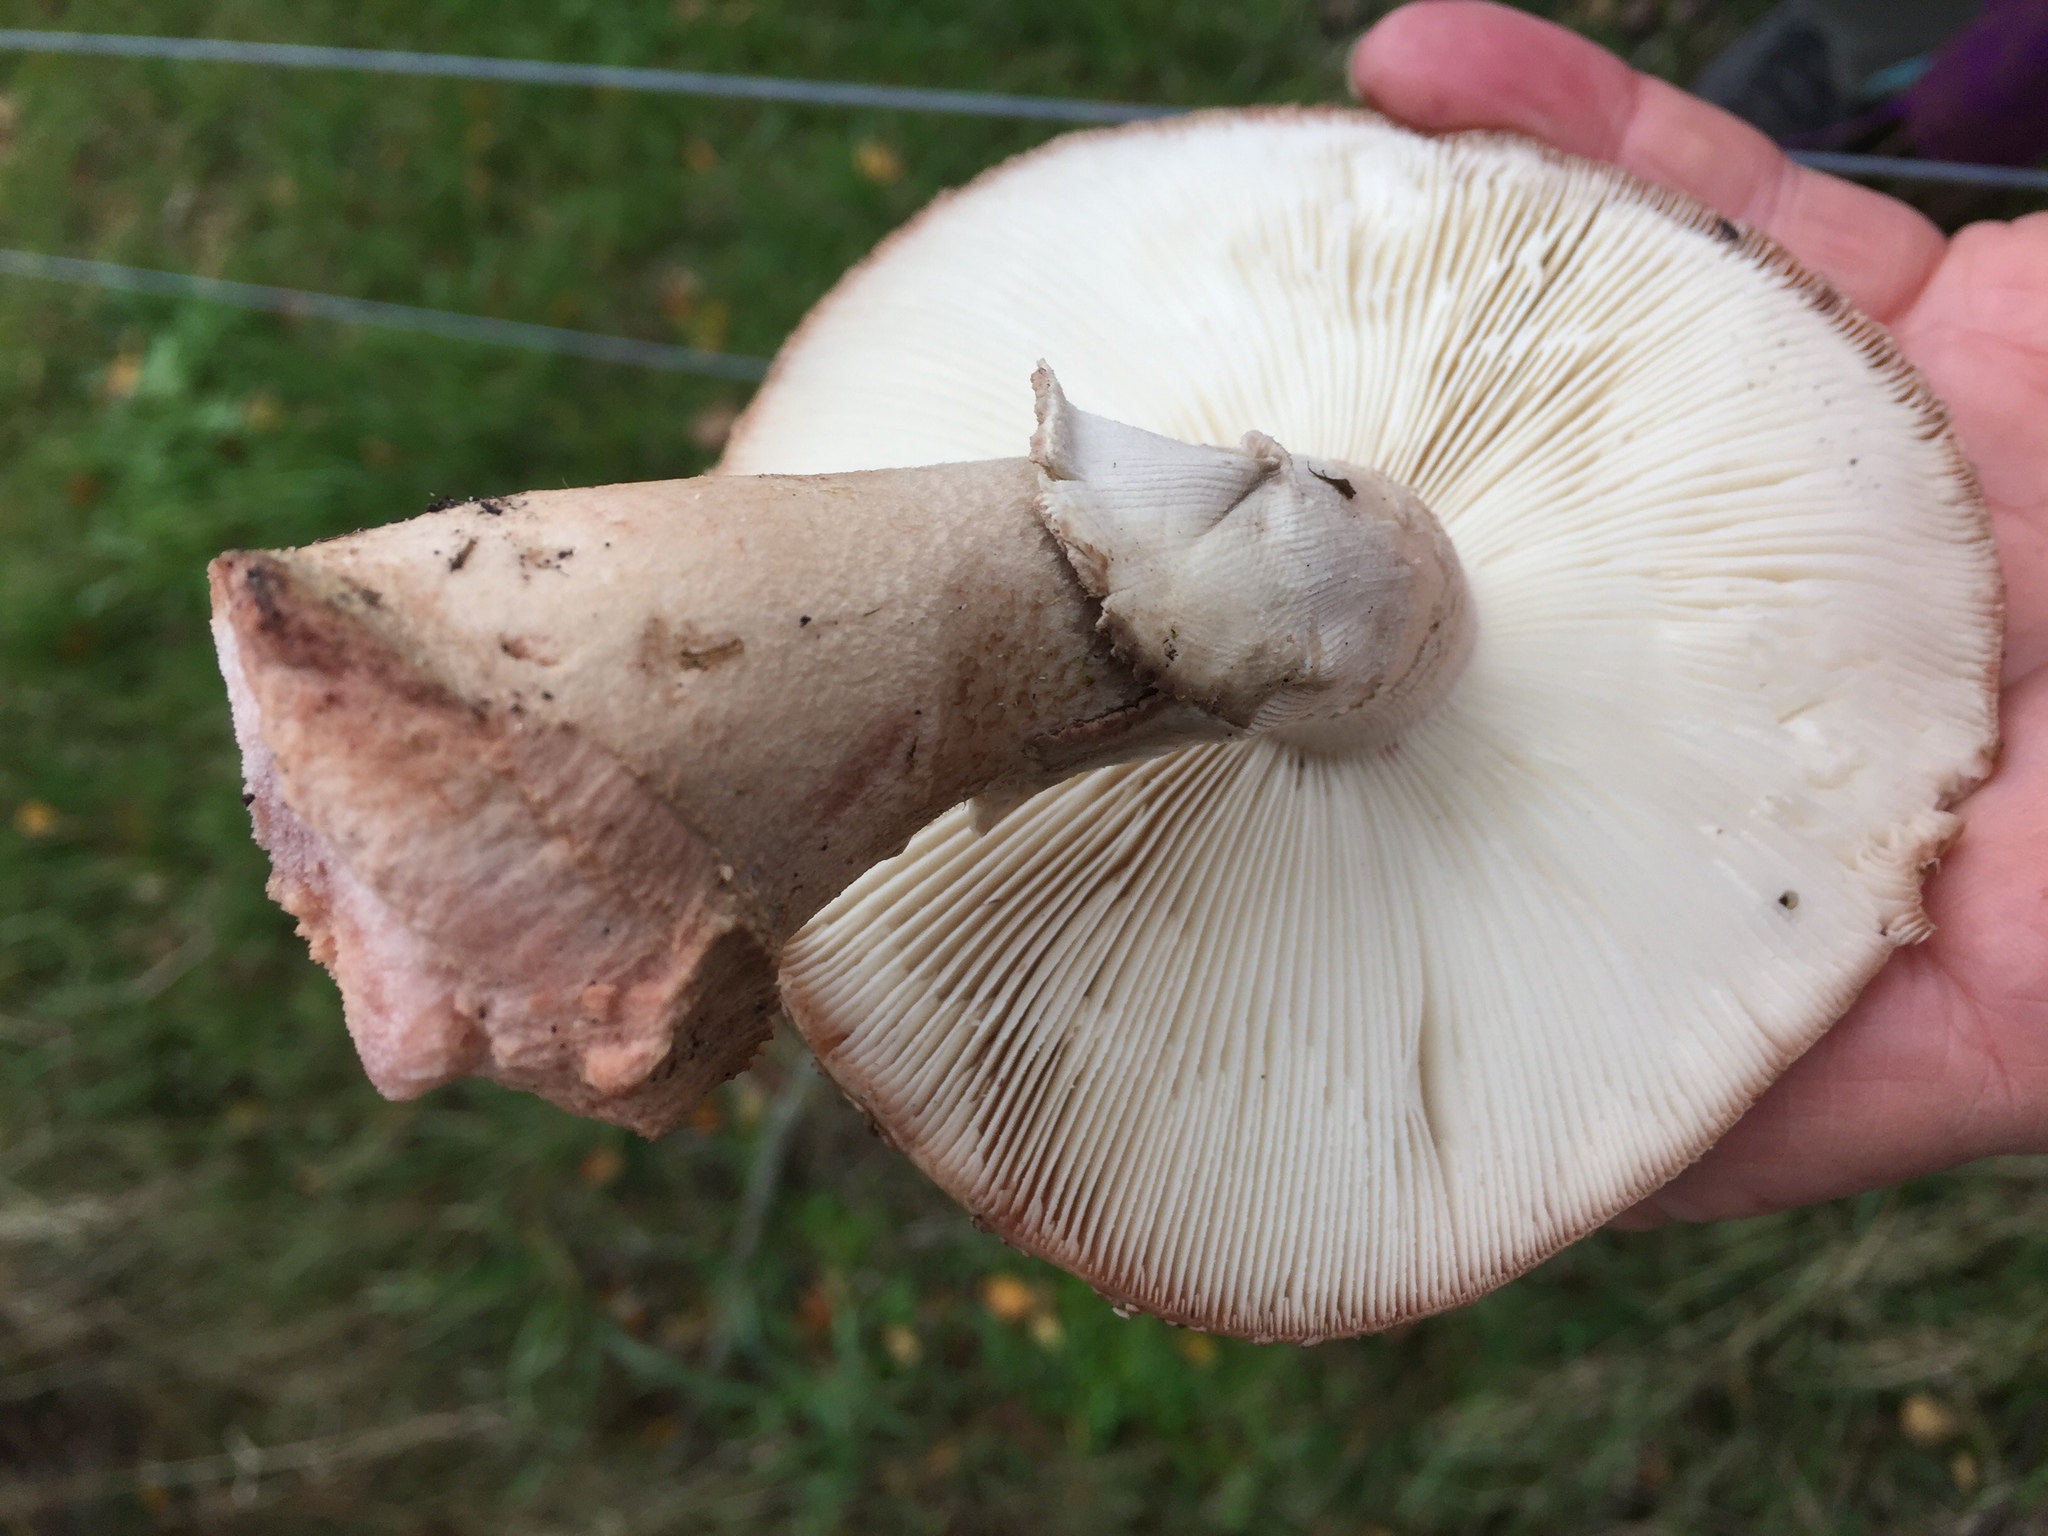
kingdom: Fungi
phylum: Basidiomycota
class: Agaricomycetes
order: Agaricales
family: Amanitaceae
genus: Amanita
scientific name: Amanita rubescens
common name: Blusher
